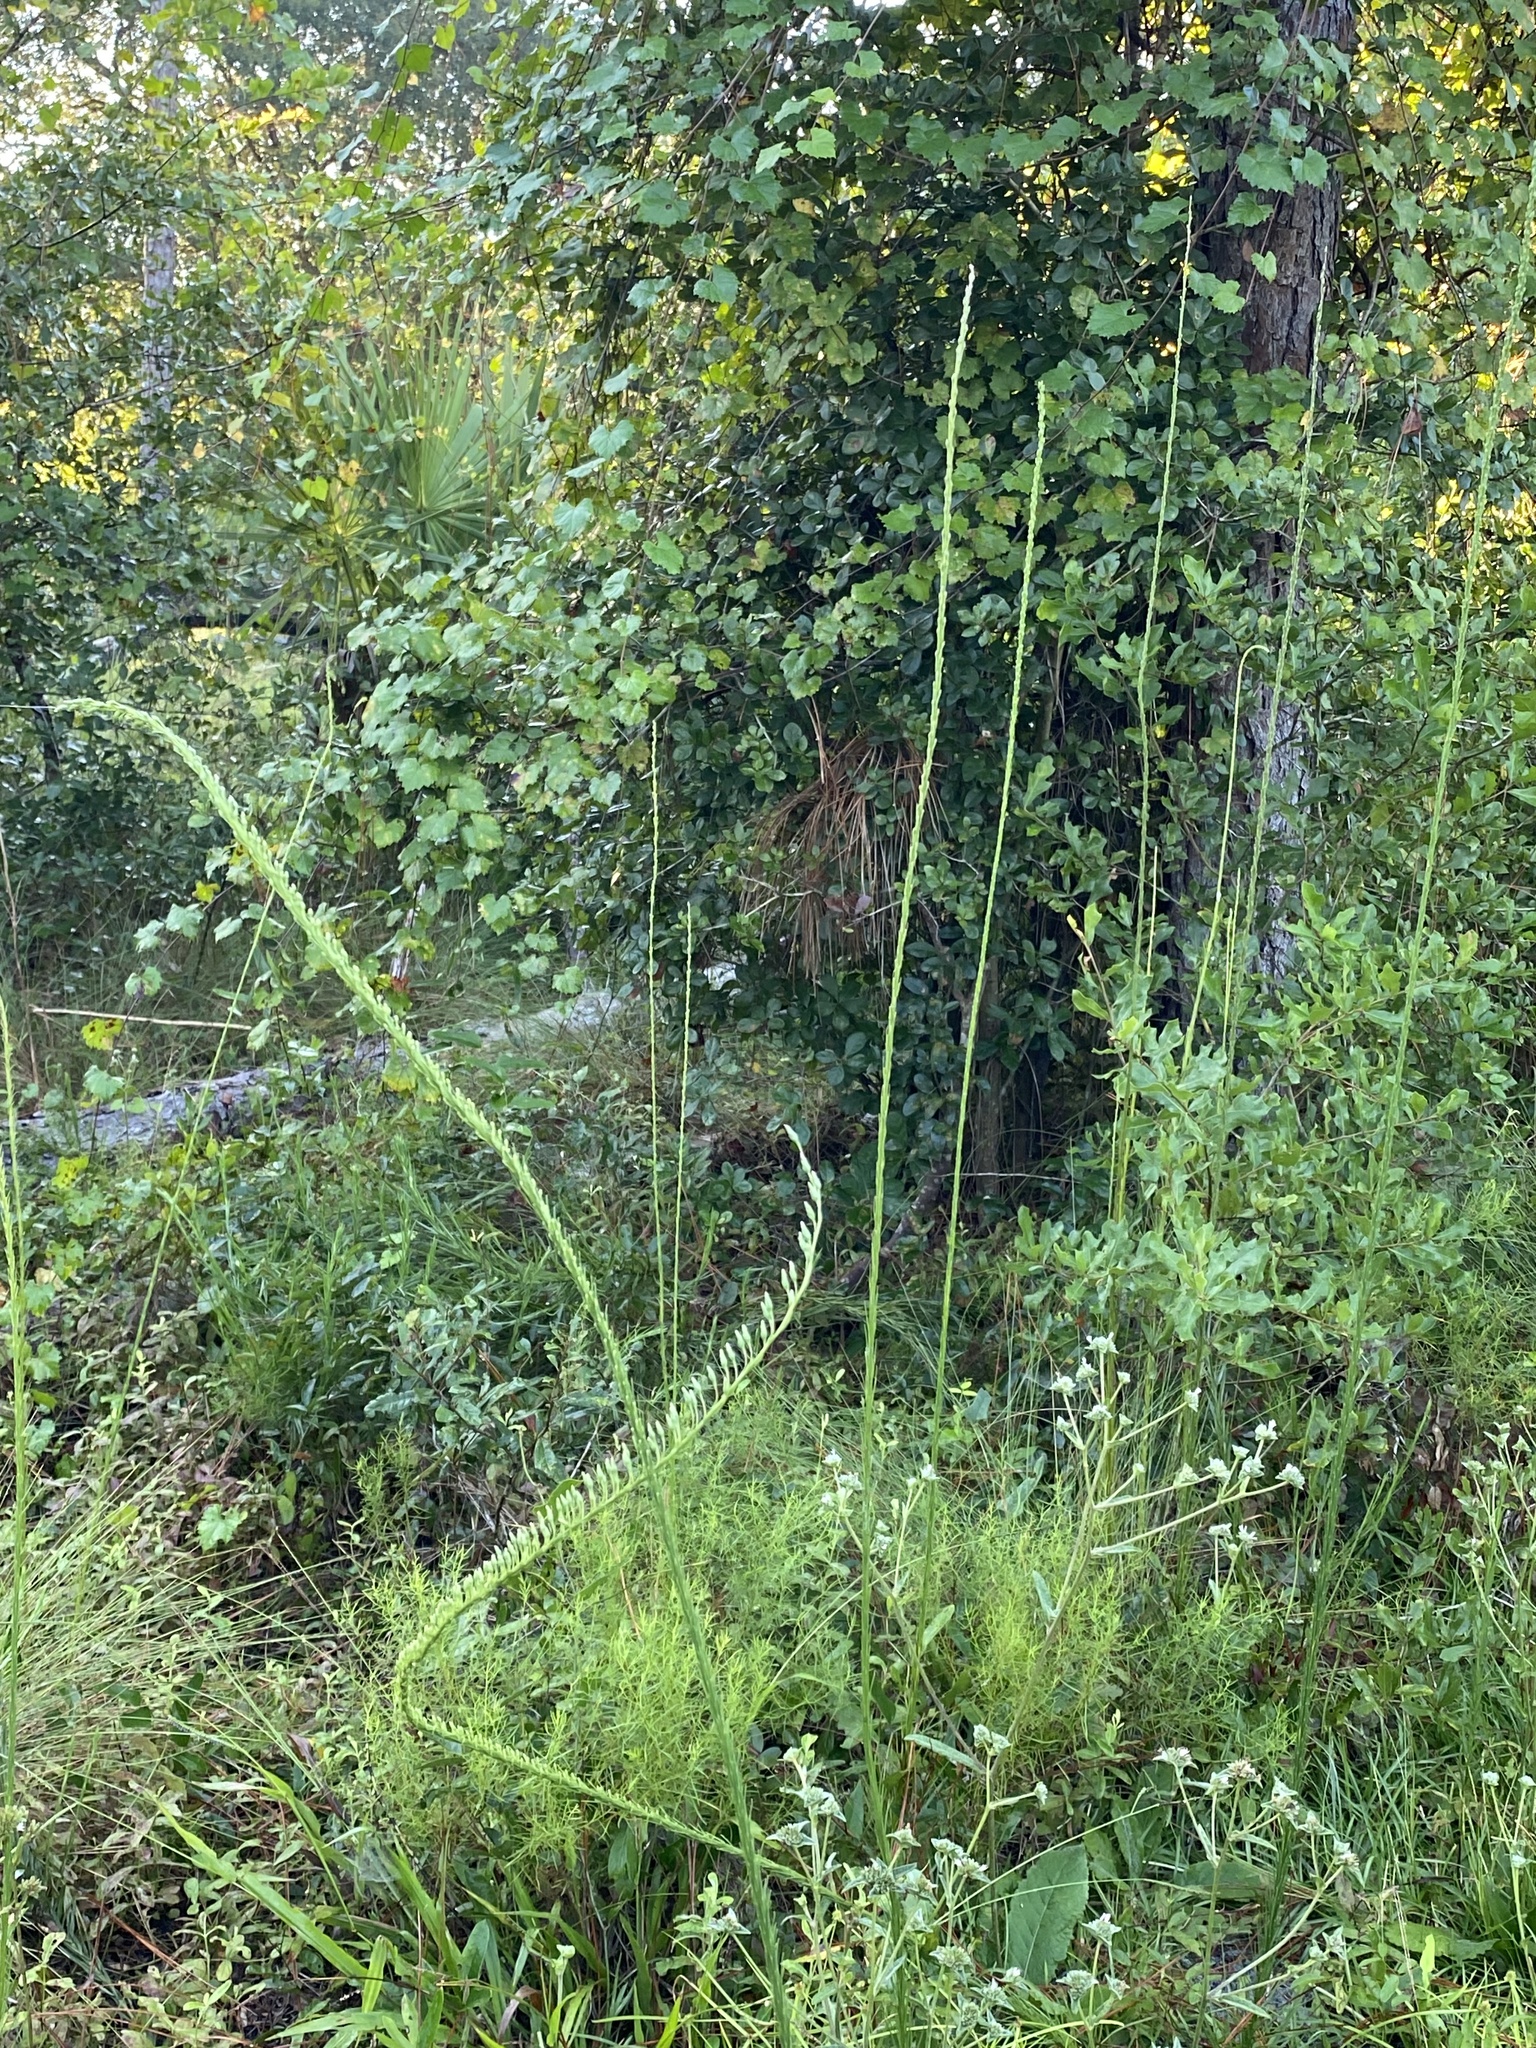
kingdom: Plantae
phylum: Tracheophyta
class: Magnoliopsida
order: Asterales
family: Asteraceae
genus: Liatris
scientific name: Liatris tenuifolia
